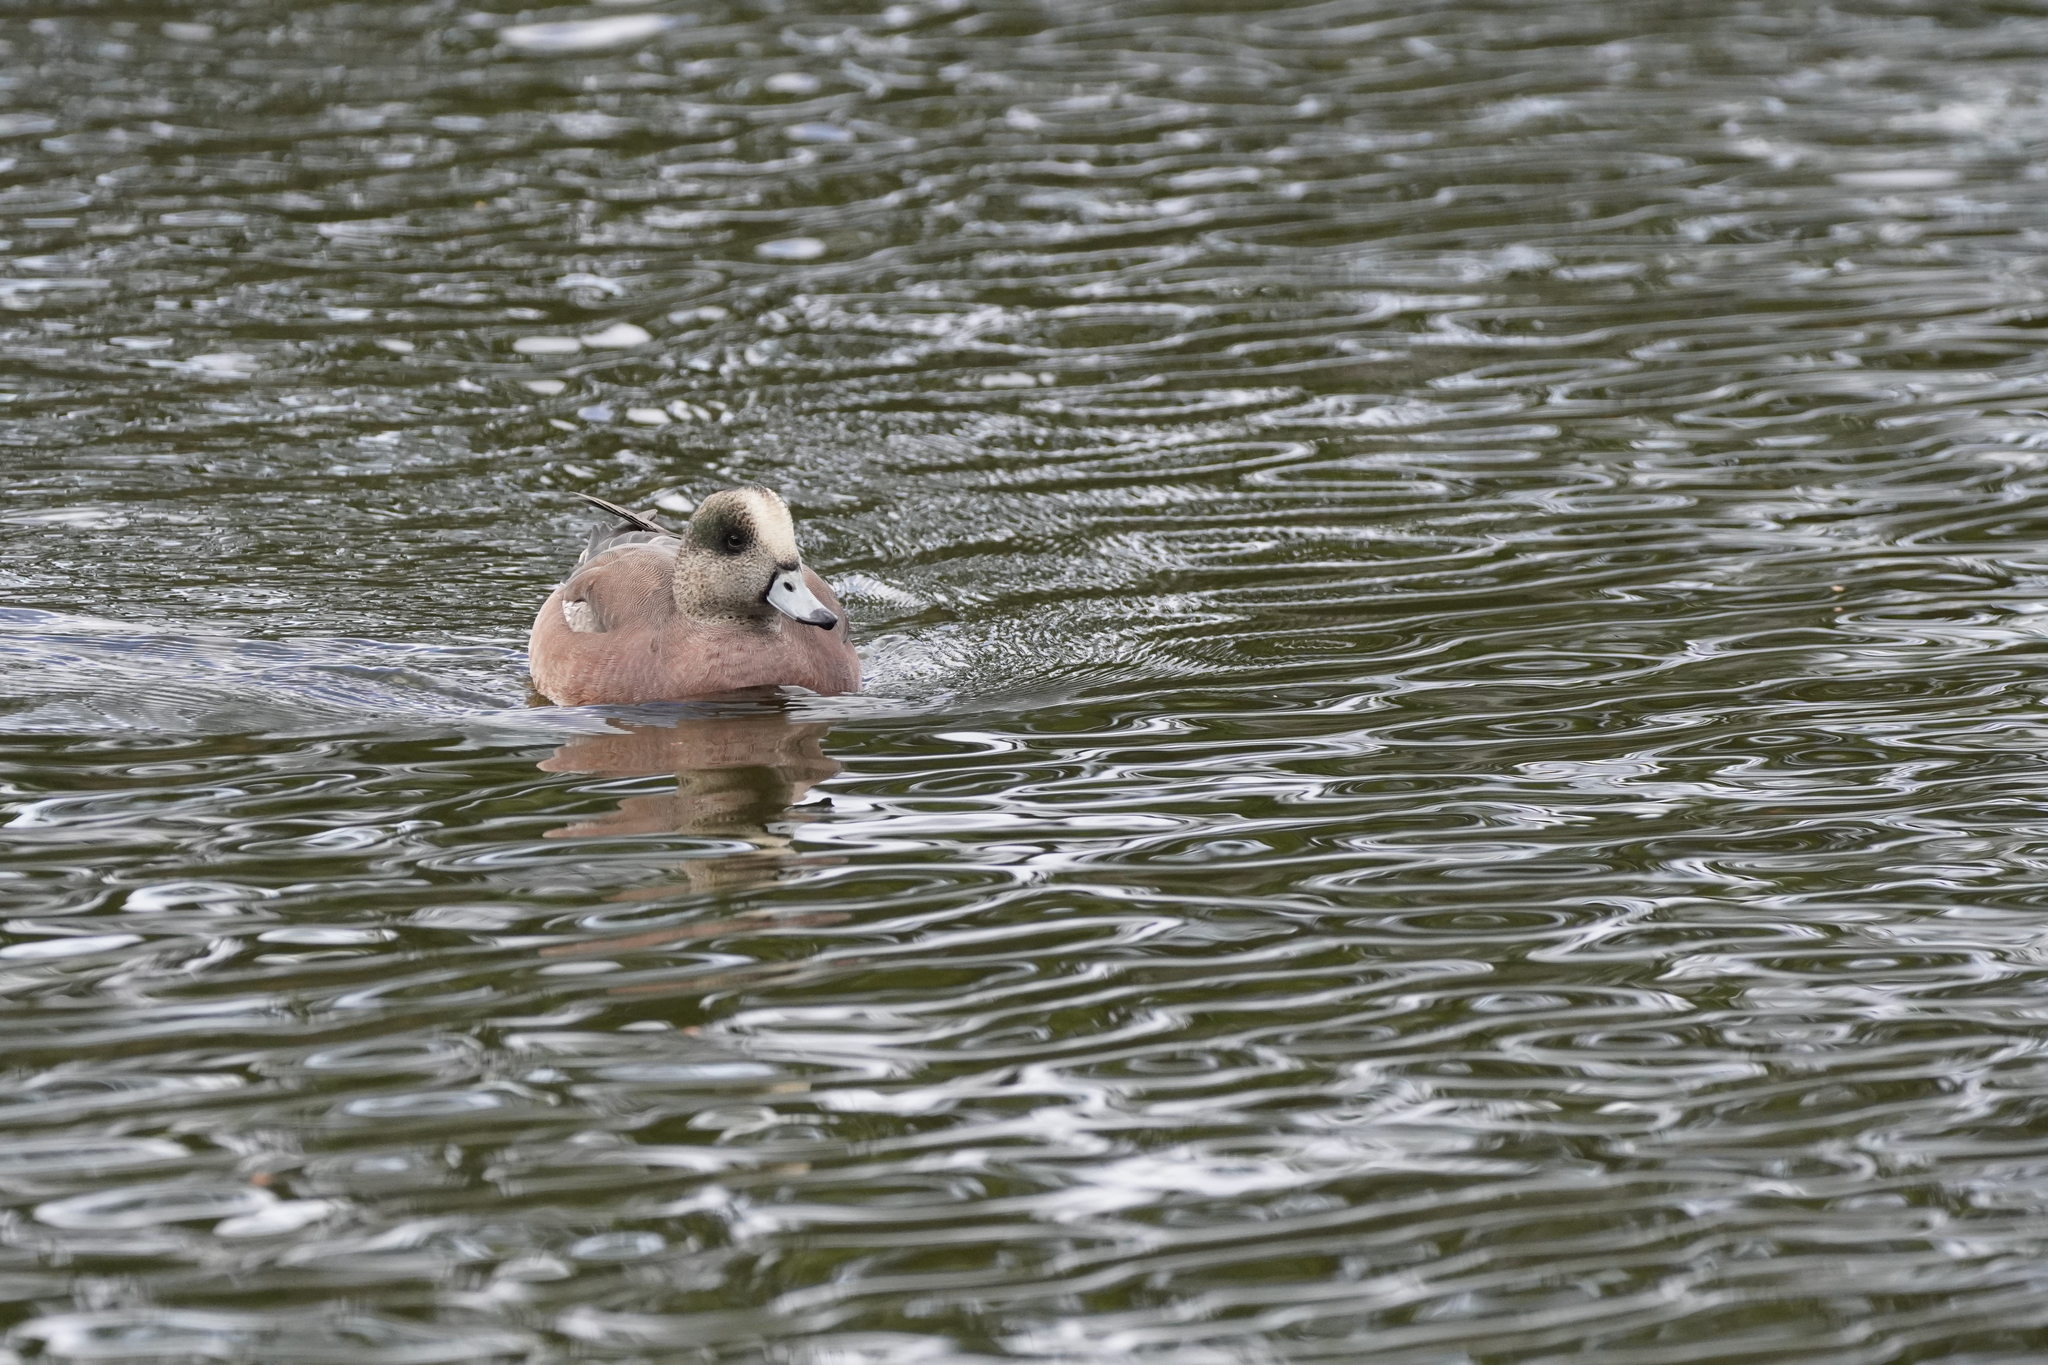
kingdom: Animalia
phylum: Chordata
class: Aves
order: Anseriformes
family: Anatidae
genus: Mareca
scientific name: Mareca americana
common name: American wigeon
